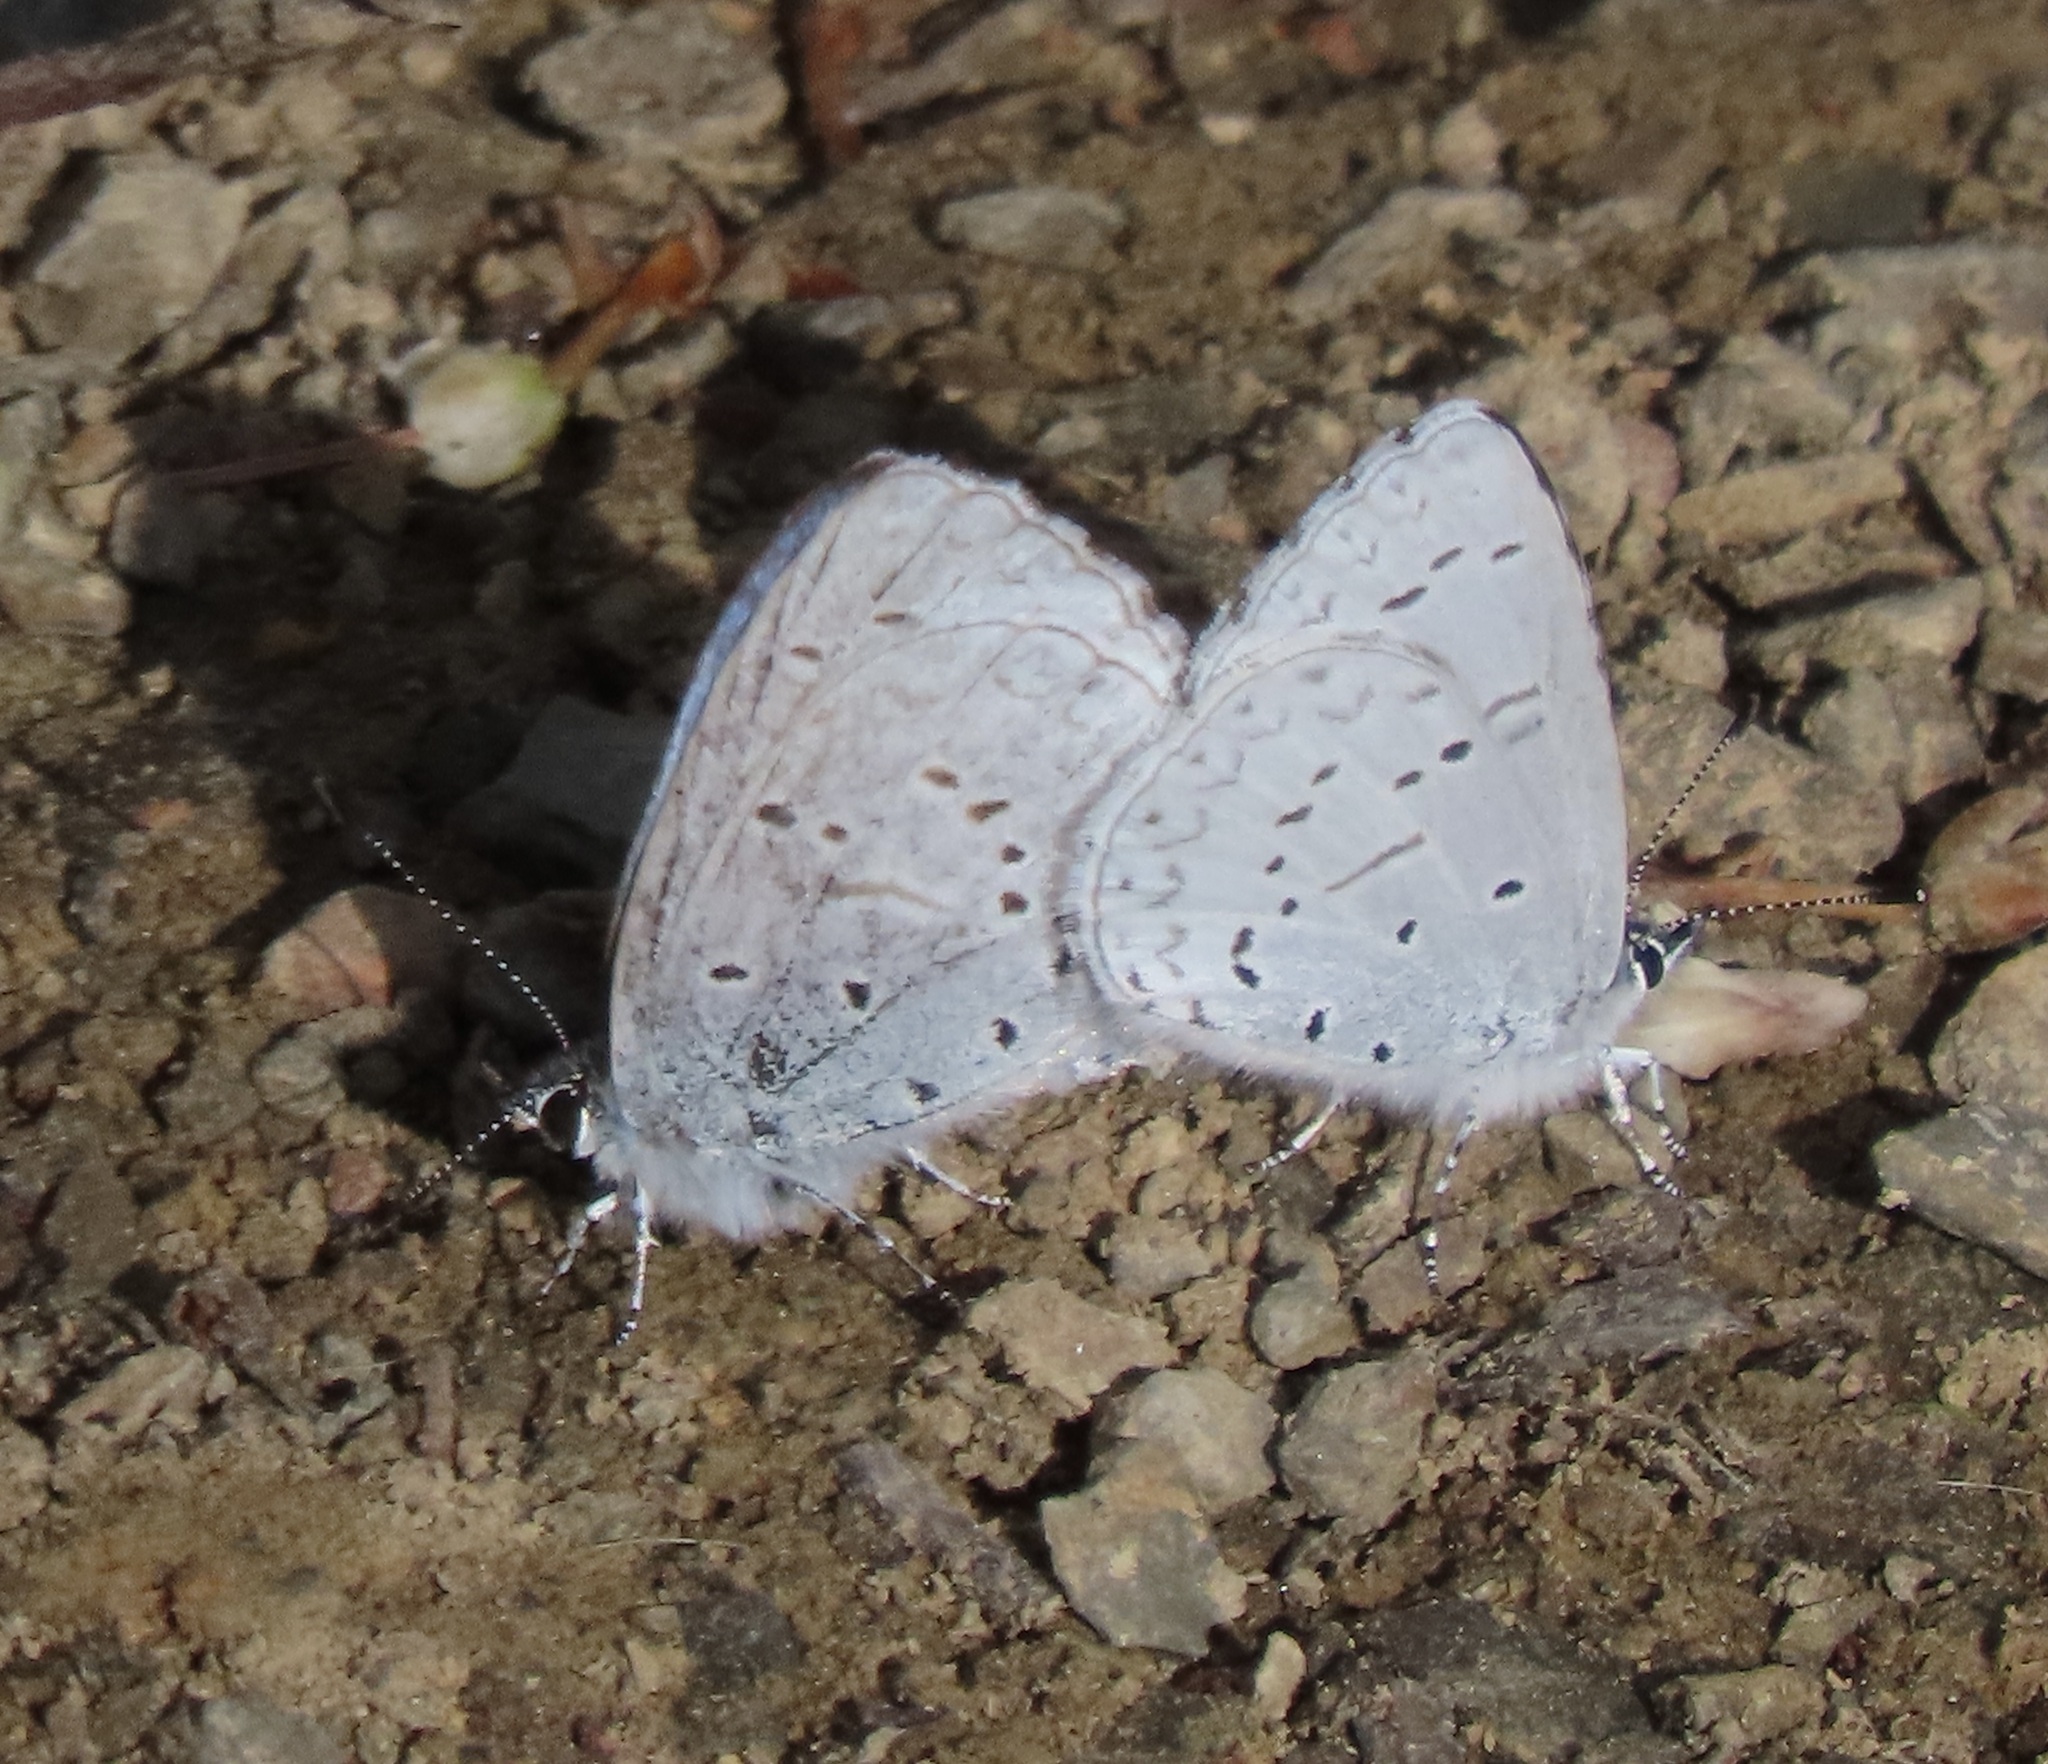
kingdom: Animalia
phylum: Arthropoda
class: Insecta
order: Lepidoptera
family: Lycaenidae
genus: Celastrina
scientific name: Celastrina ladon
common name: Spring azure
